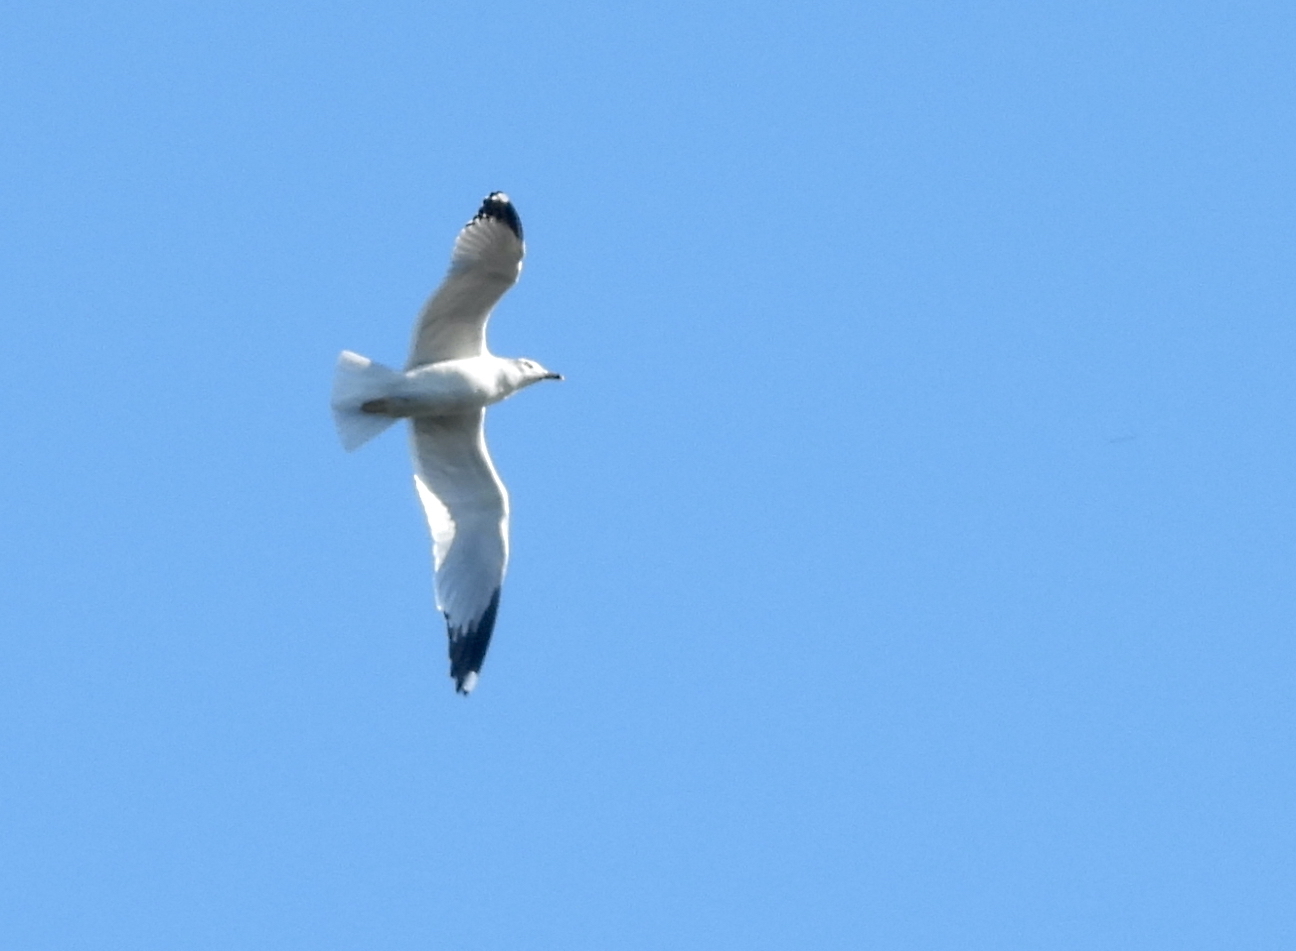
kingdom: Animalia
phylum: Chordata
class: Aves
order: Charadriiformes
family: Laridae
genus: Larus
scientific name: Larus delawarensis
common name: Ring-billed gull
